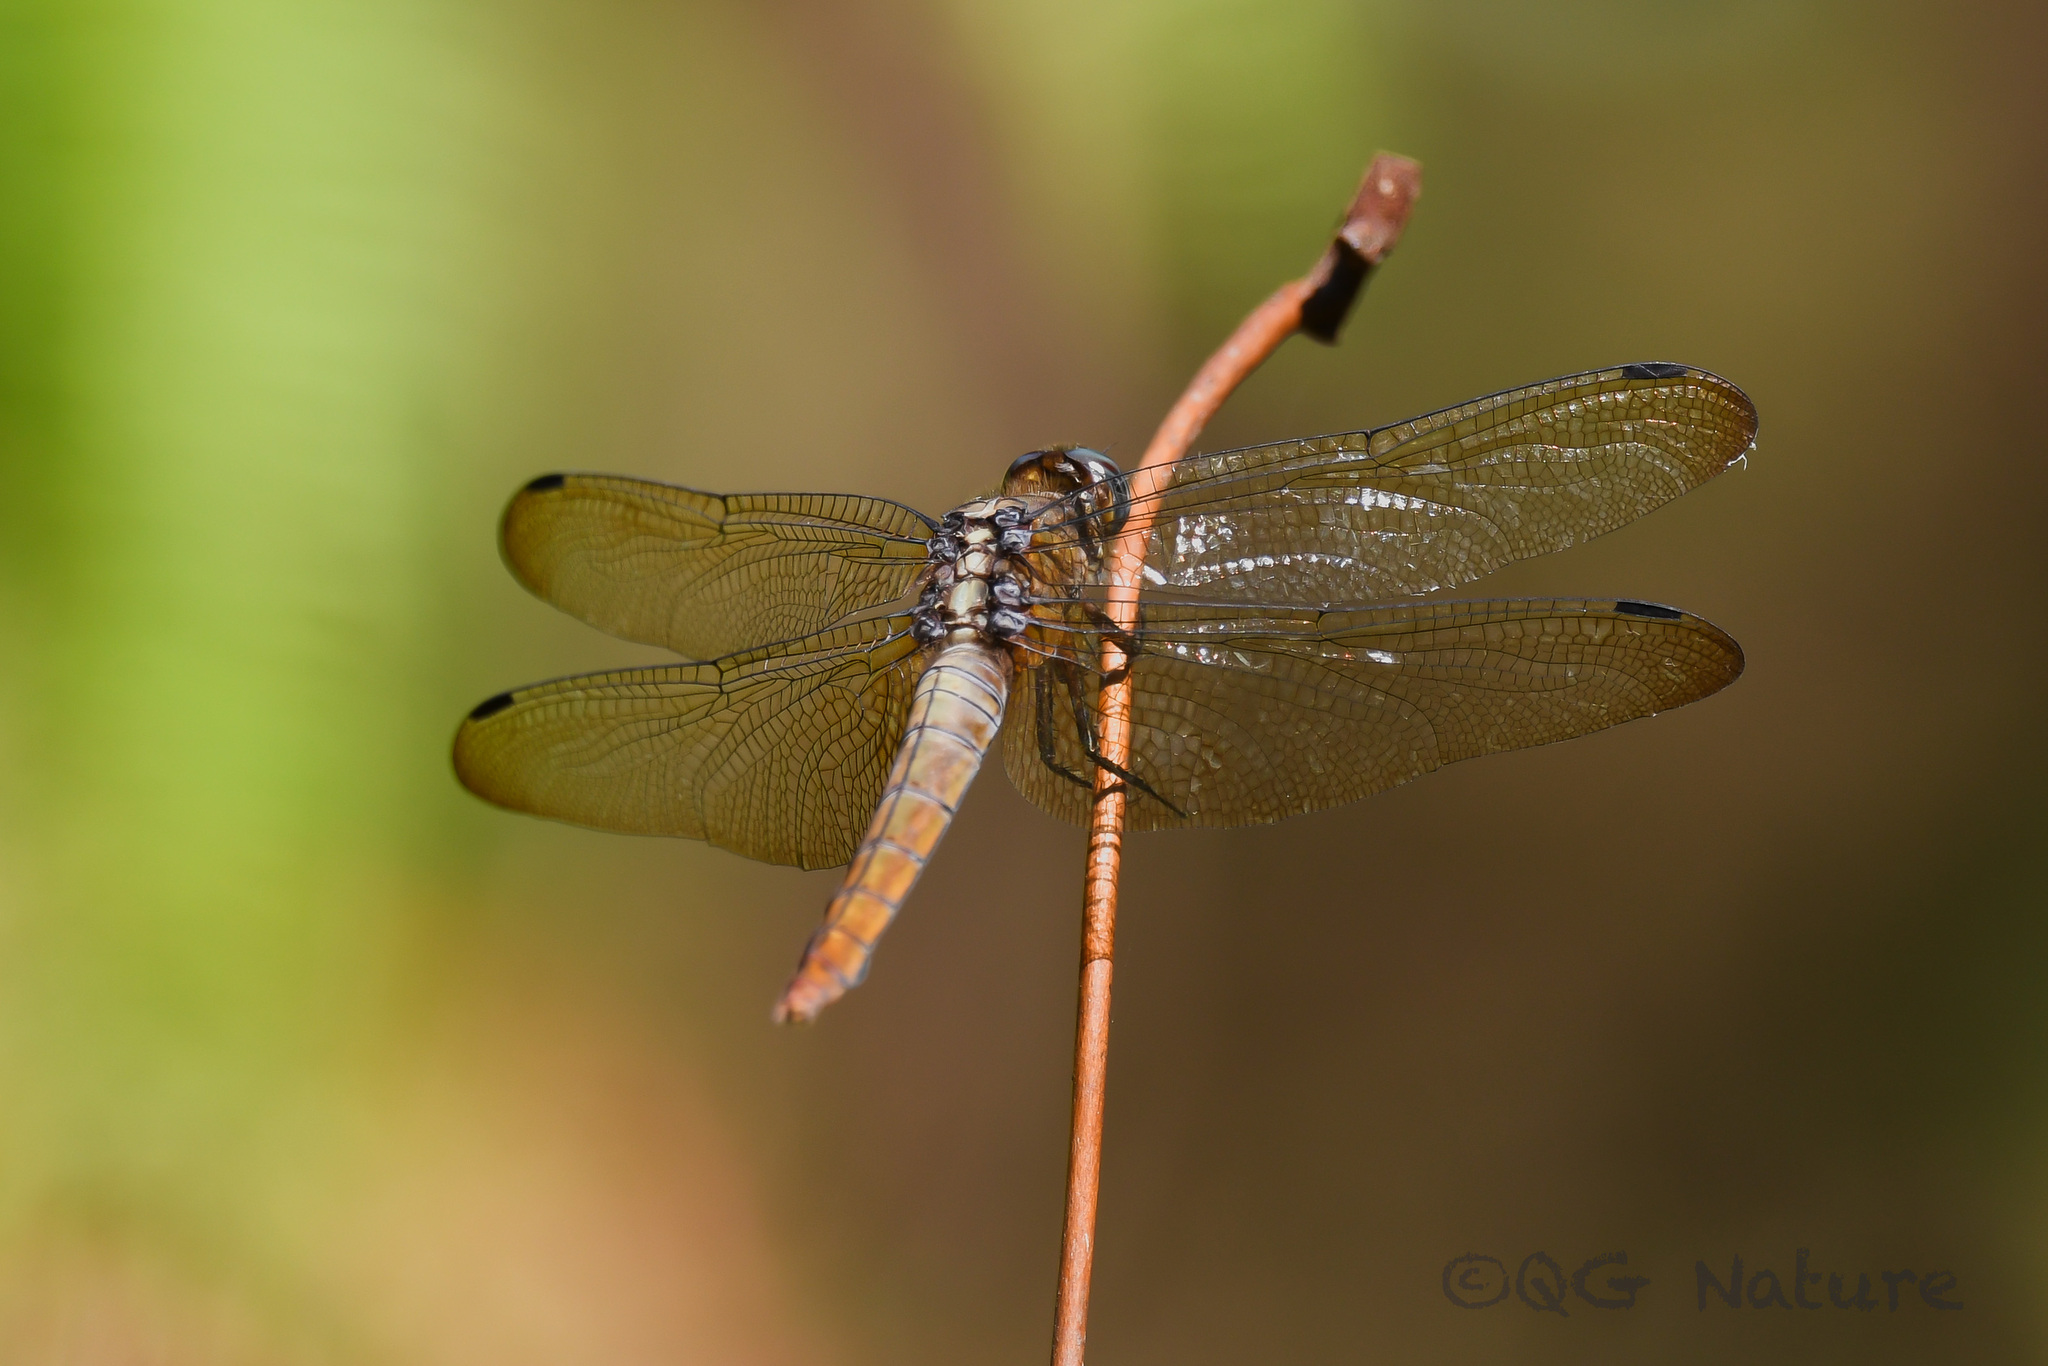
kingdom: Animalia
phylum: Arthropoda
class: Insecta
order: Odonata
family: Libellulidae
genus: Orthetrum
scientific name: Orthetrum pruinosum
